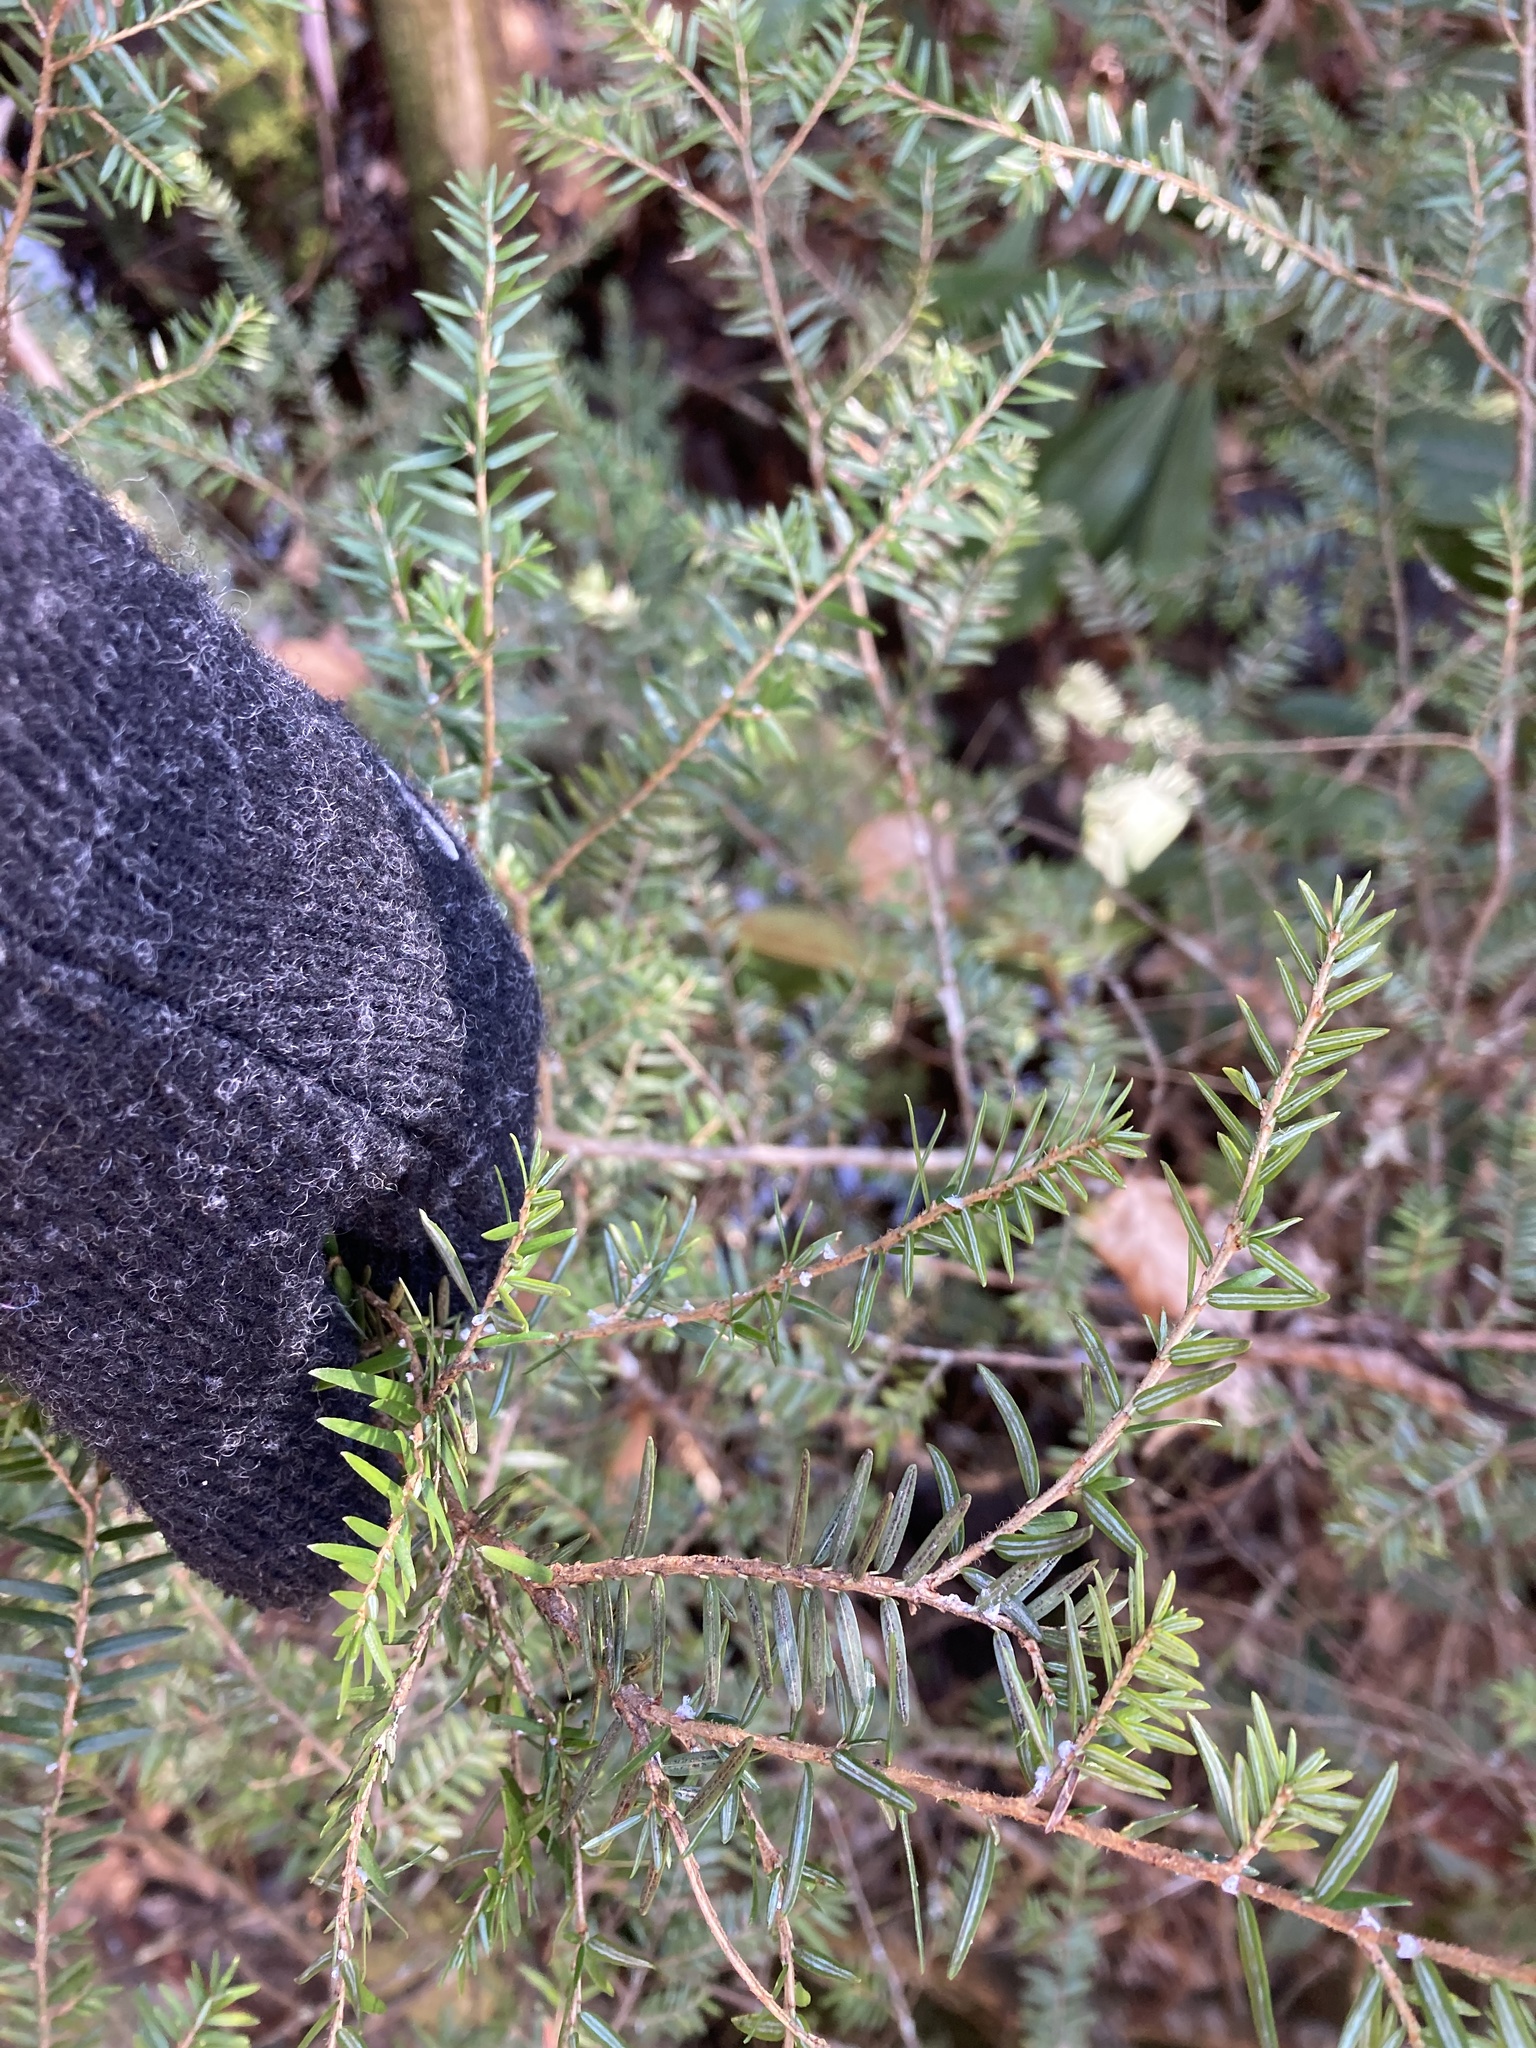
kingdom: Animalia
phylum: Arthropoda
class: Insecta
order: Hemiptera
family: Adelgidae
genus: Adelges
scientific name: Adelges tsugae
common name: Hemlock woolly adelgid
